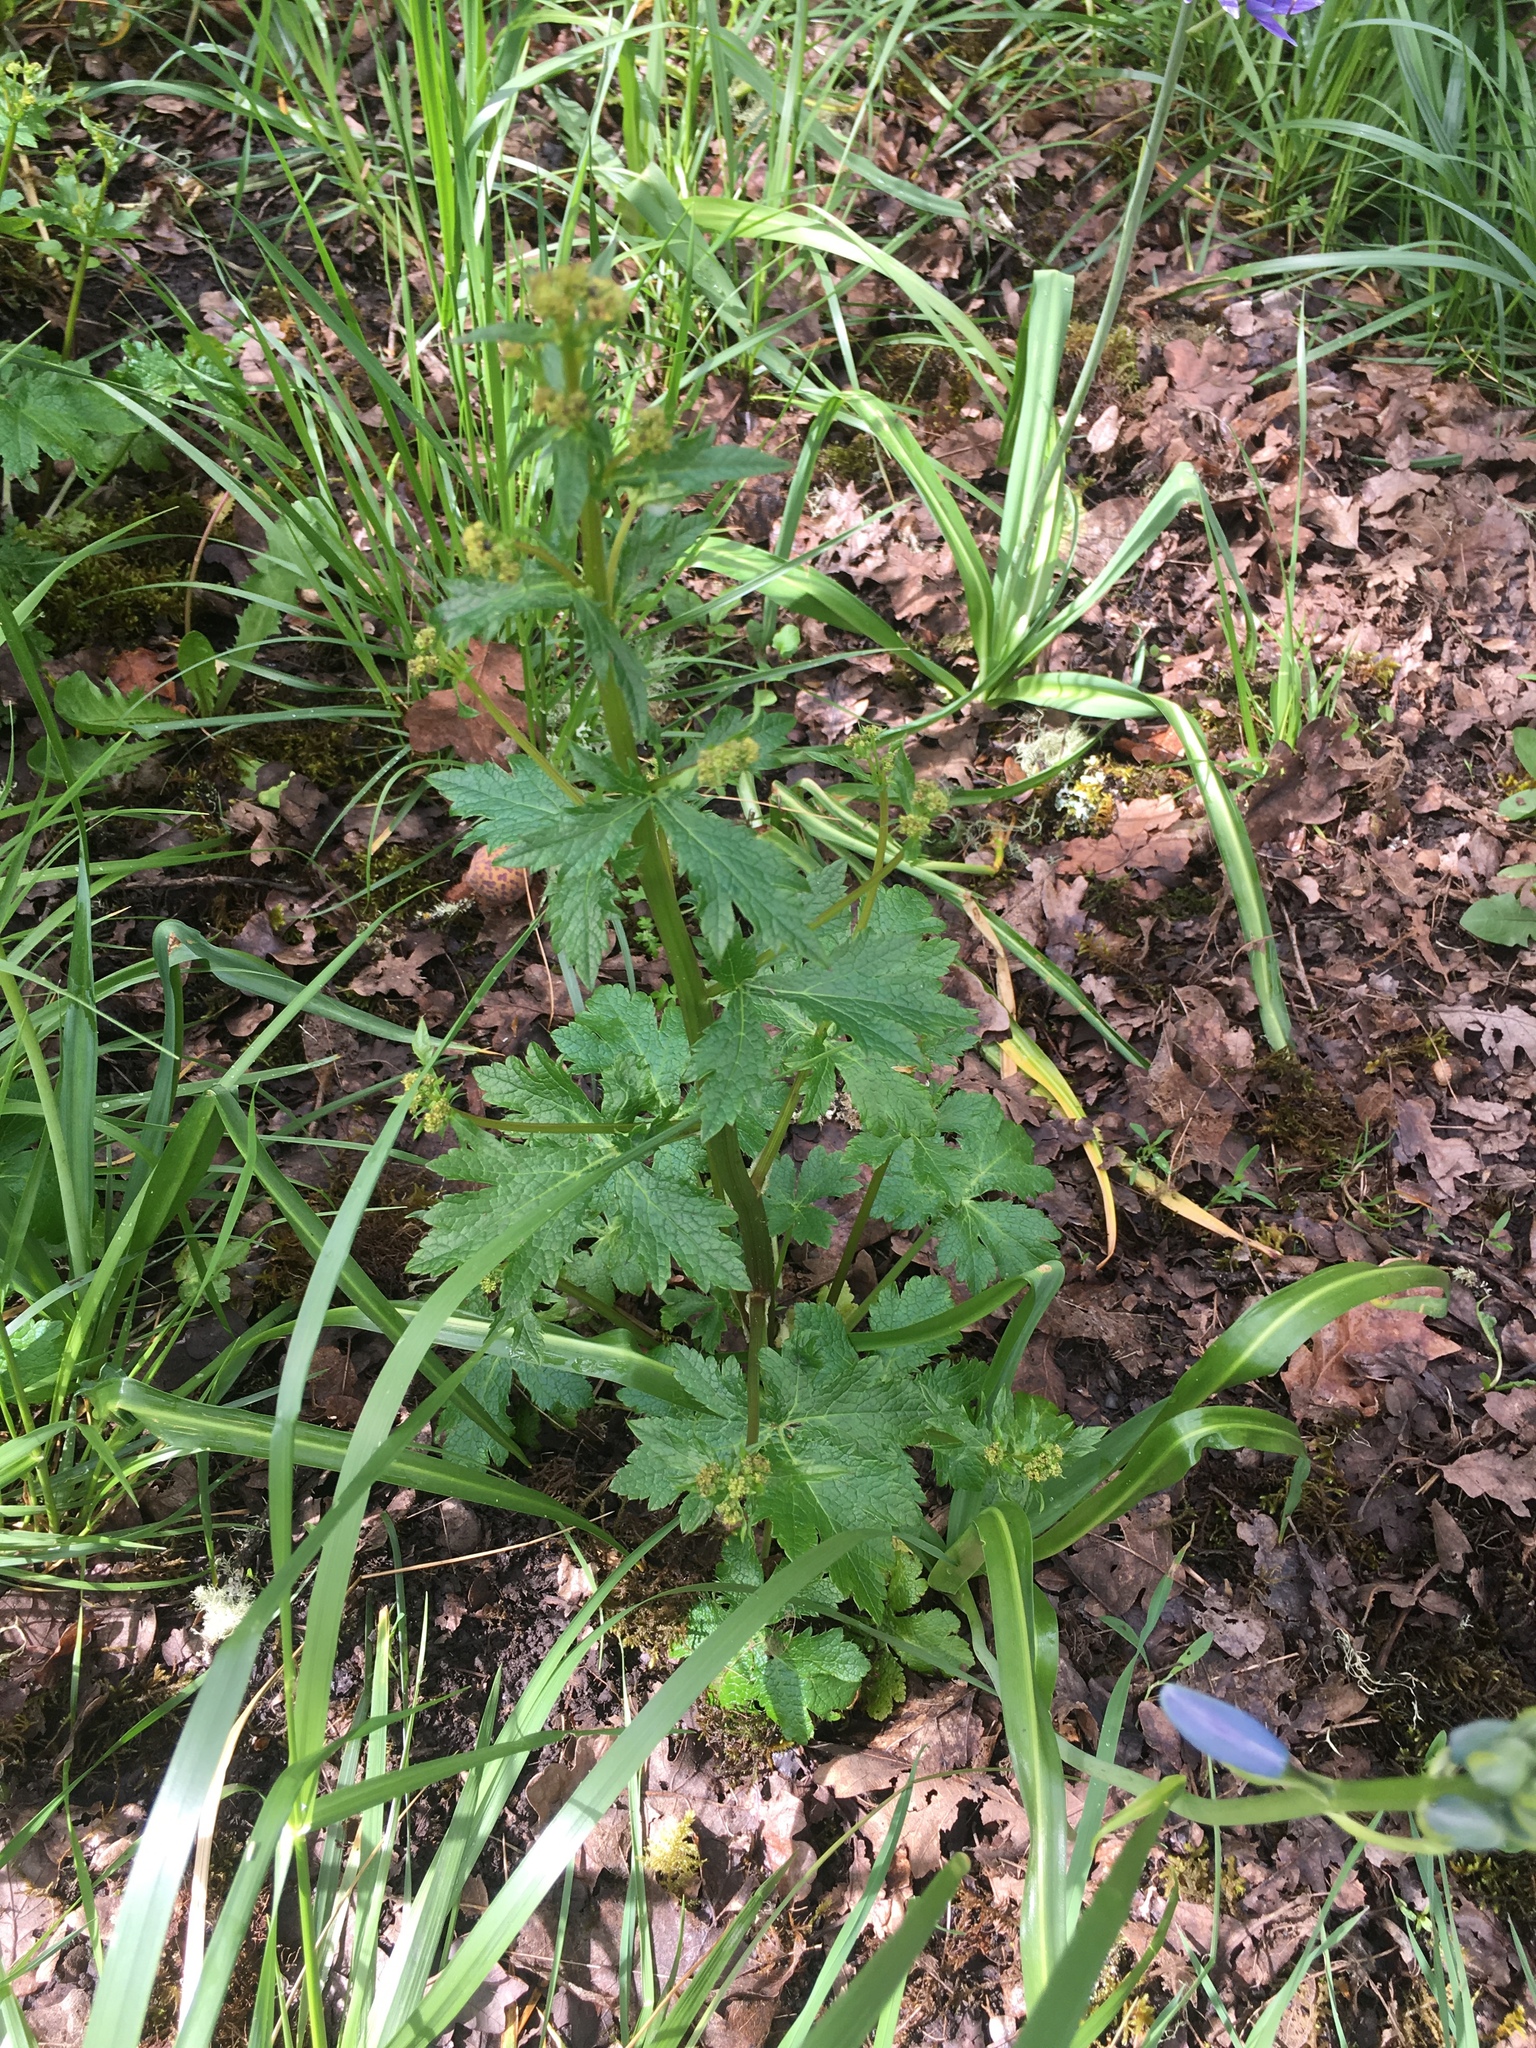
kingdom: Plantae
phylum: Tracheophyta
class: Magnoliopsida
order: Apiales
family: Apiaceae
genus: Sanicula
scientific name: Sanicula crassicaulis
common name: Western snakeroot
